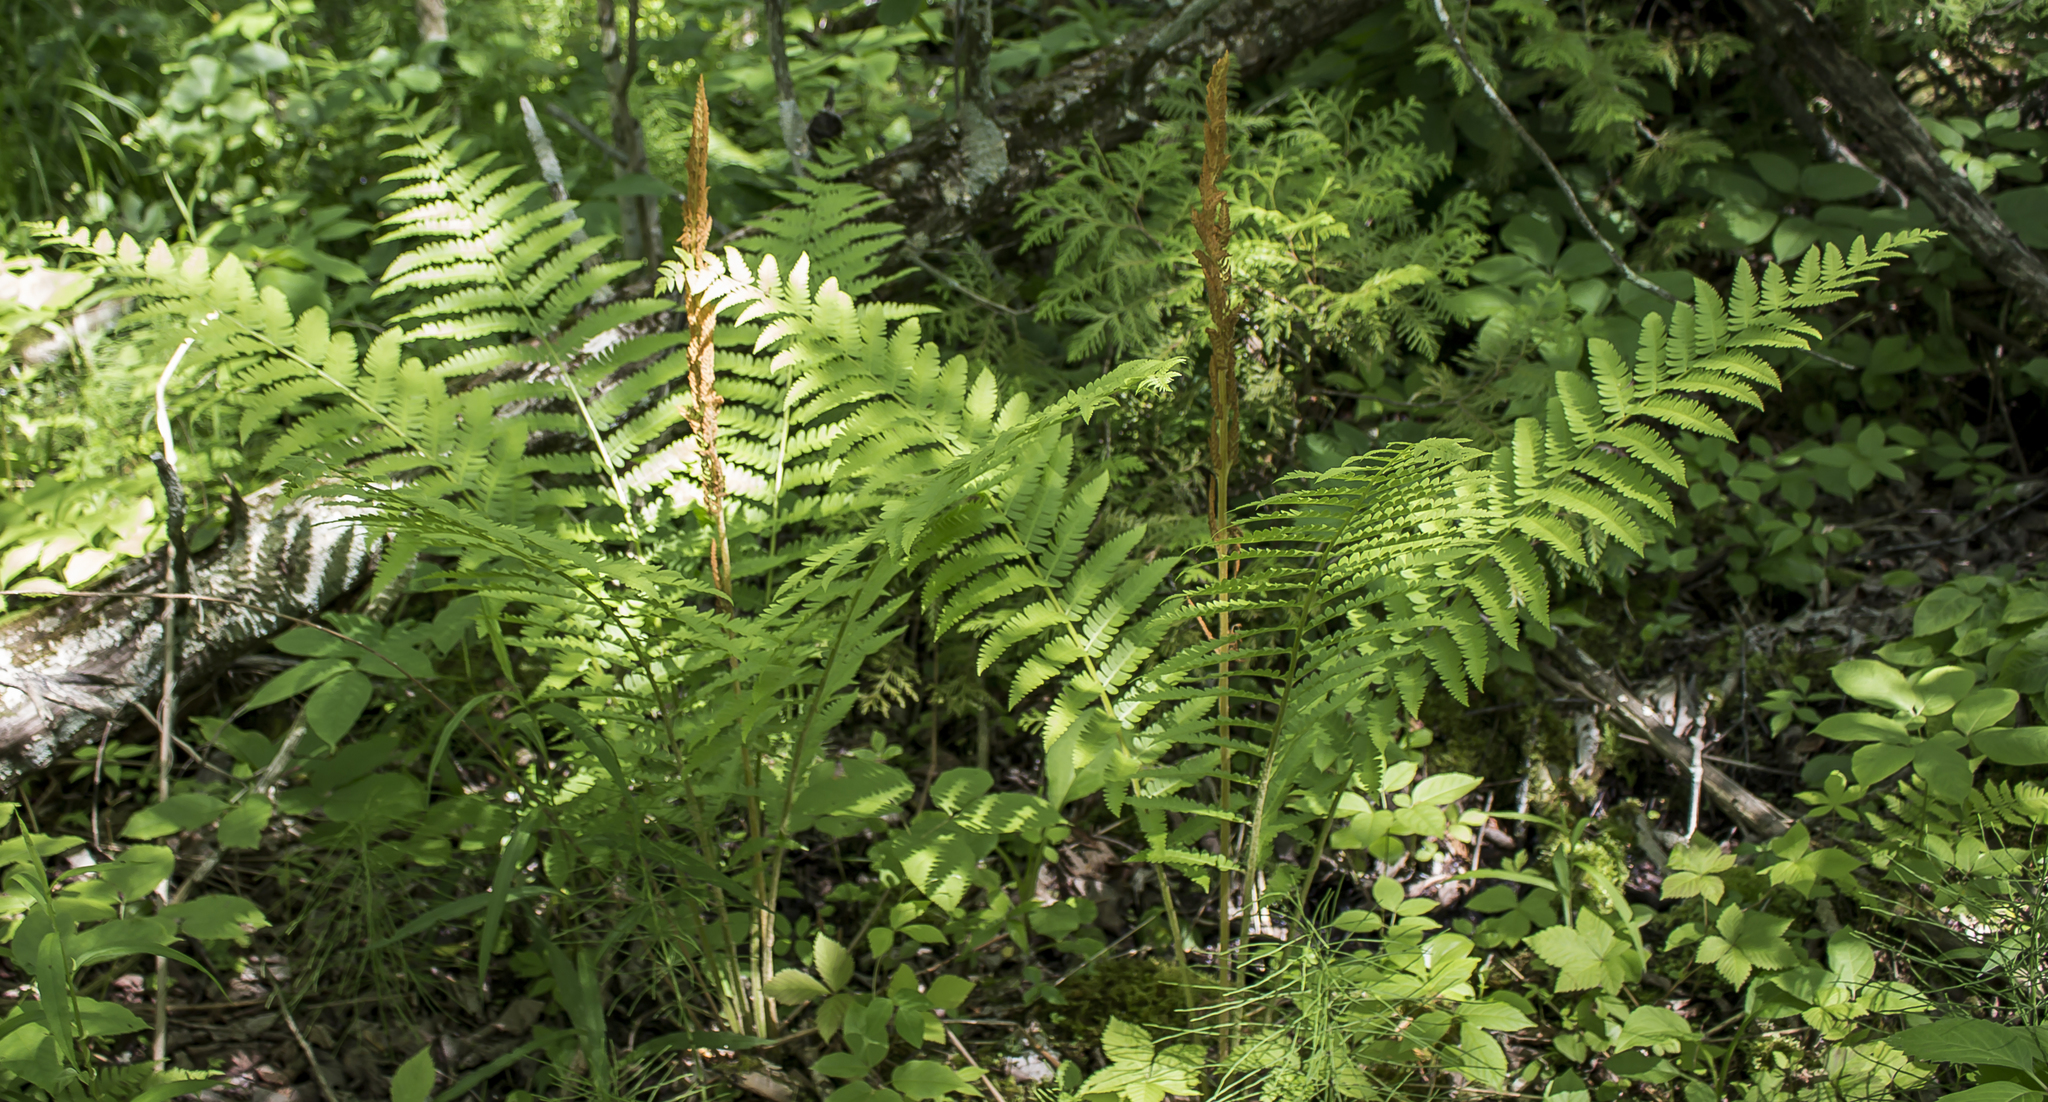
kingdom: Plantae
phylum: Tracheophyta
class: Polypodiopsida
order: Osmundales
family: Osmundaceae
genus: Osmundastrum
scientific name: Osmundastrum cinnamomeum
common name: Cinnamon fern
